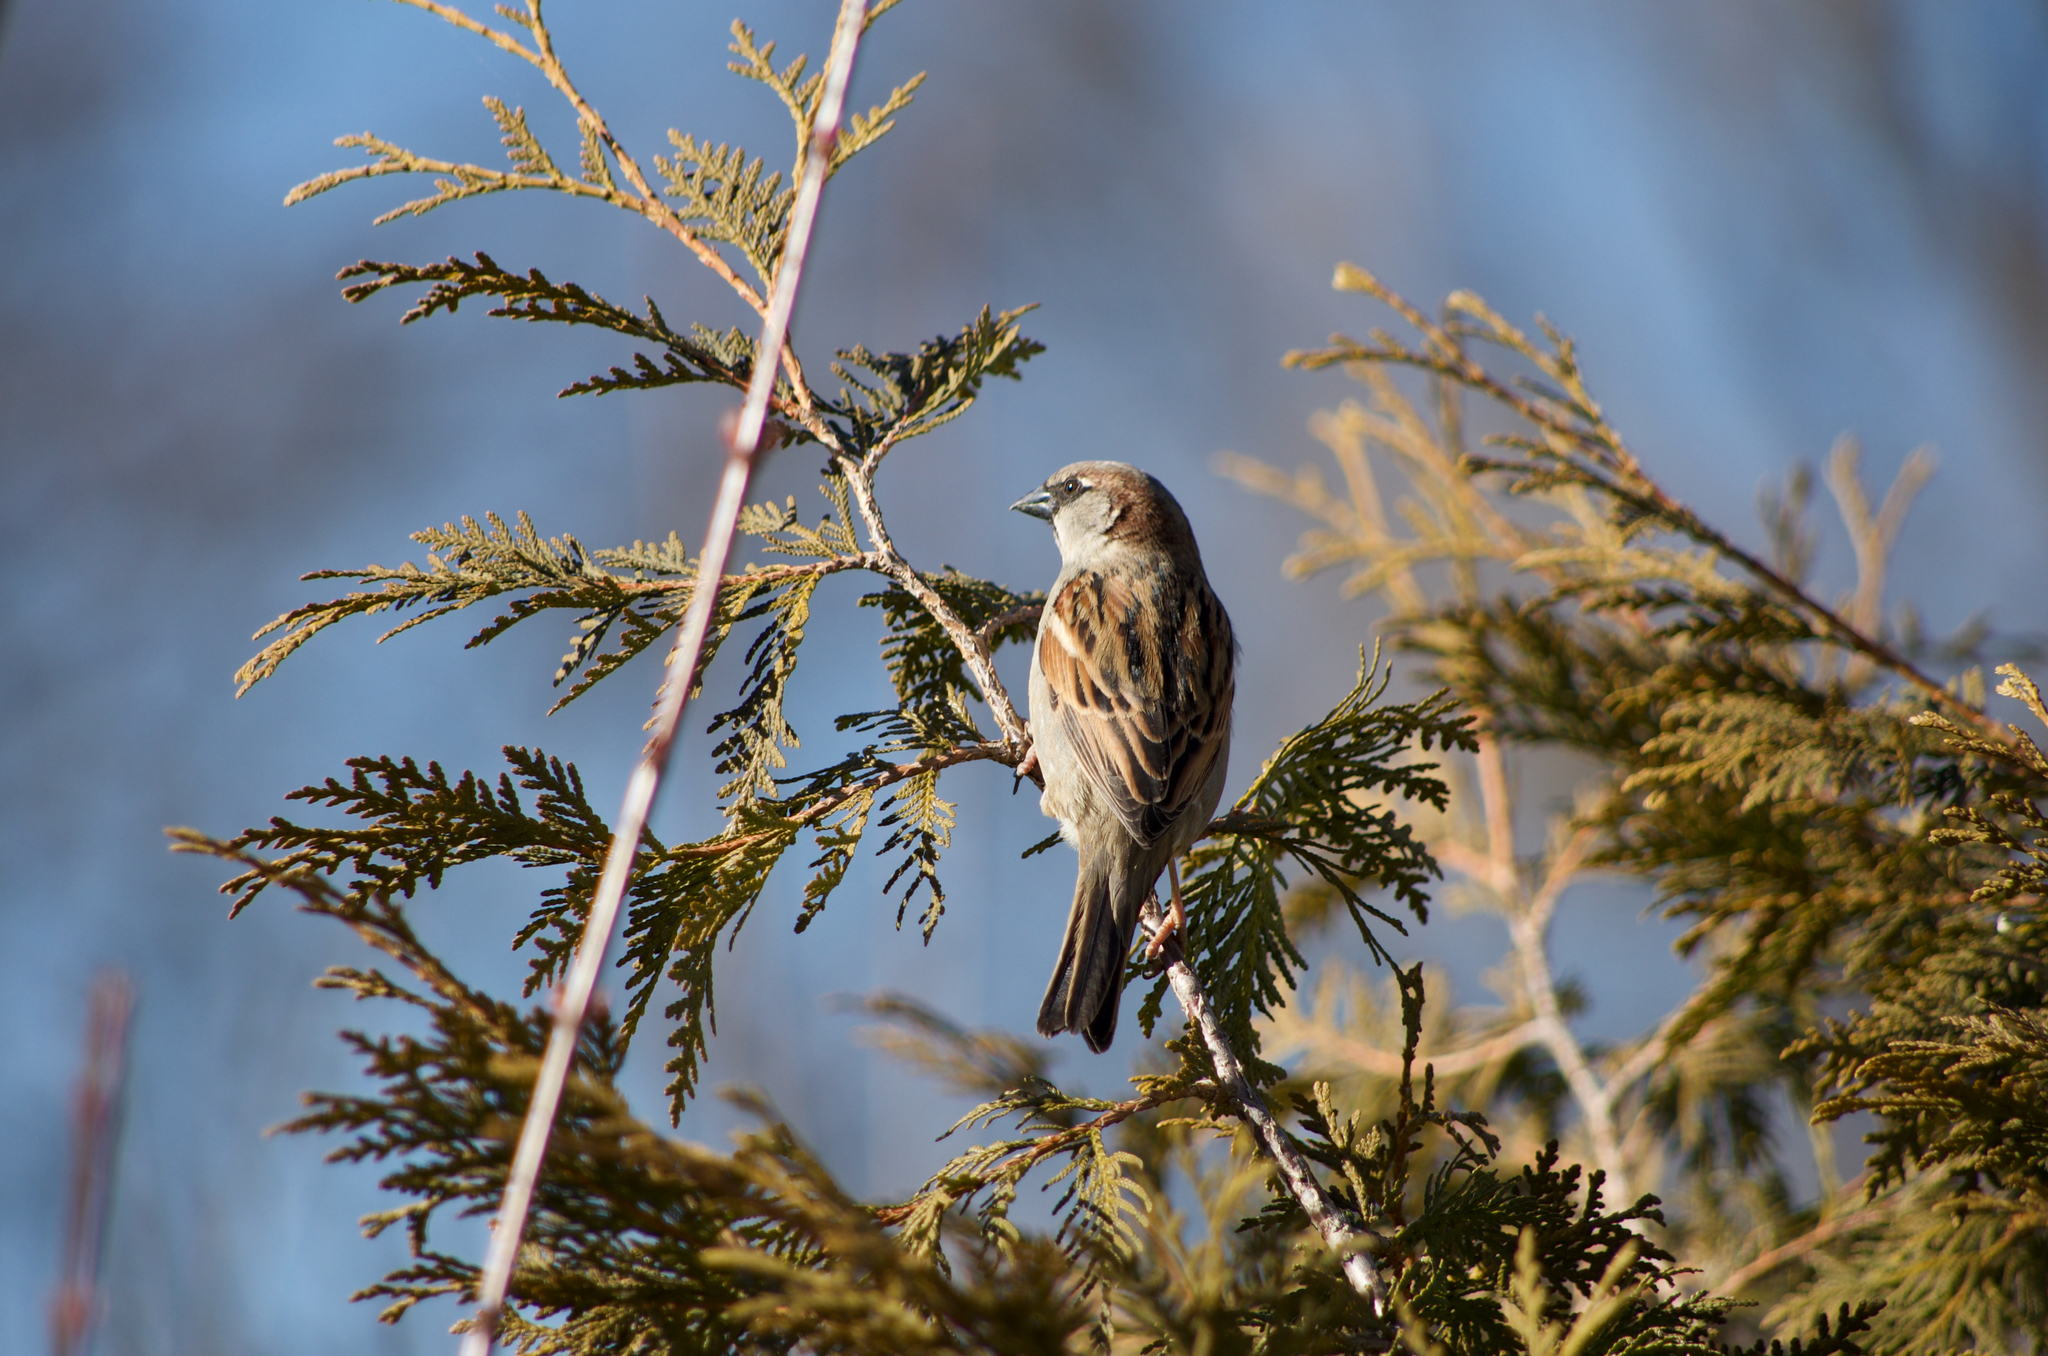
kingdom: Animalia
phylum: Chordata
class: Aves
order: Passeriformes
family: Passeridae
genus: Passer
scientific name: Passer domesticus
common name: House sparrow
